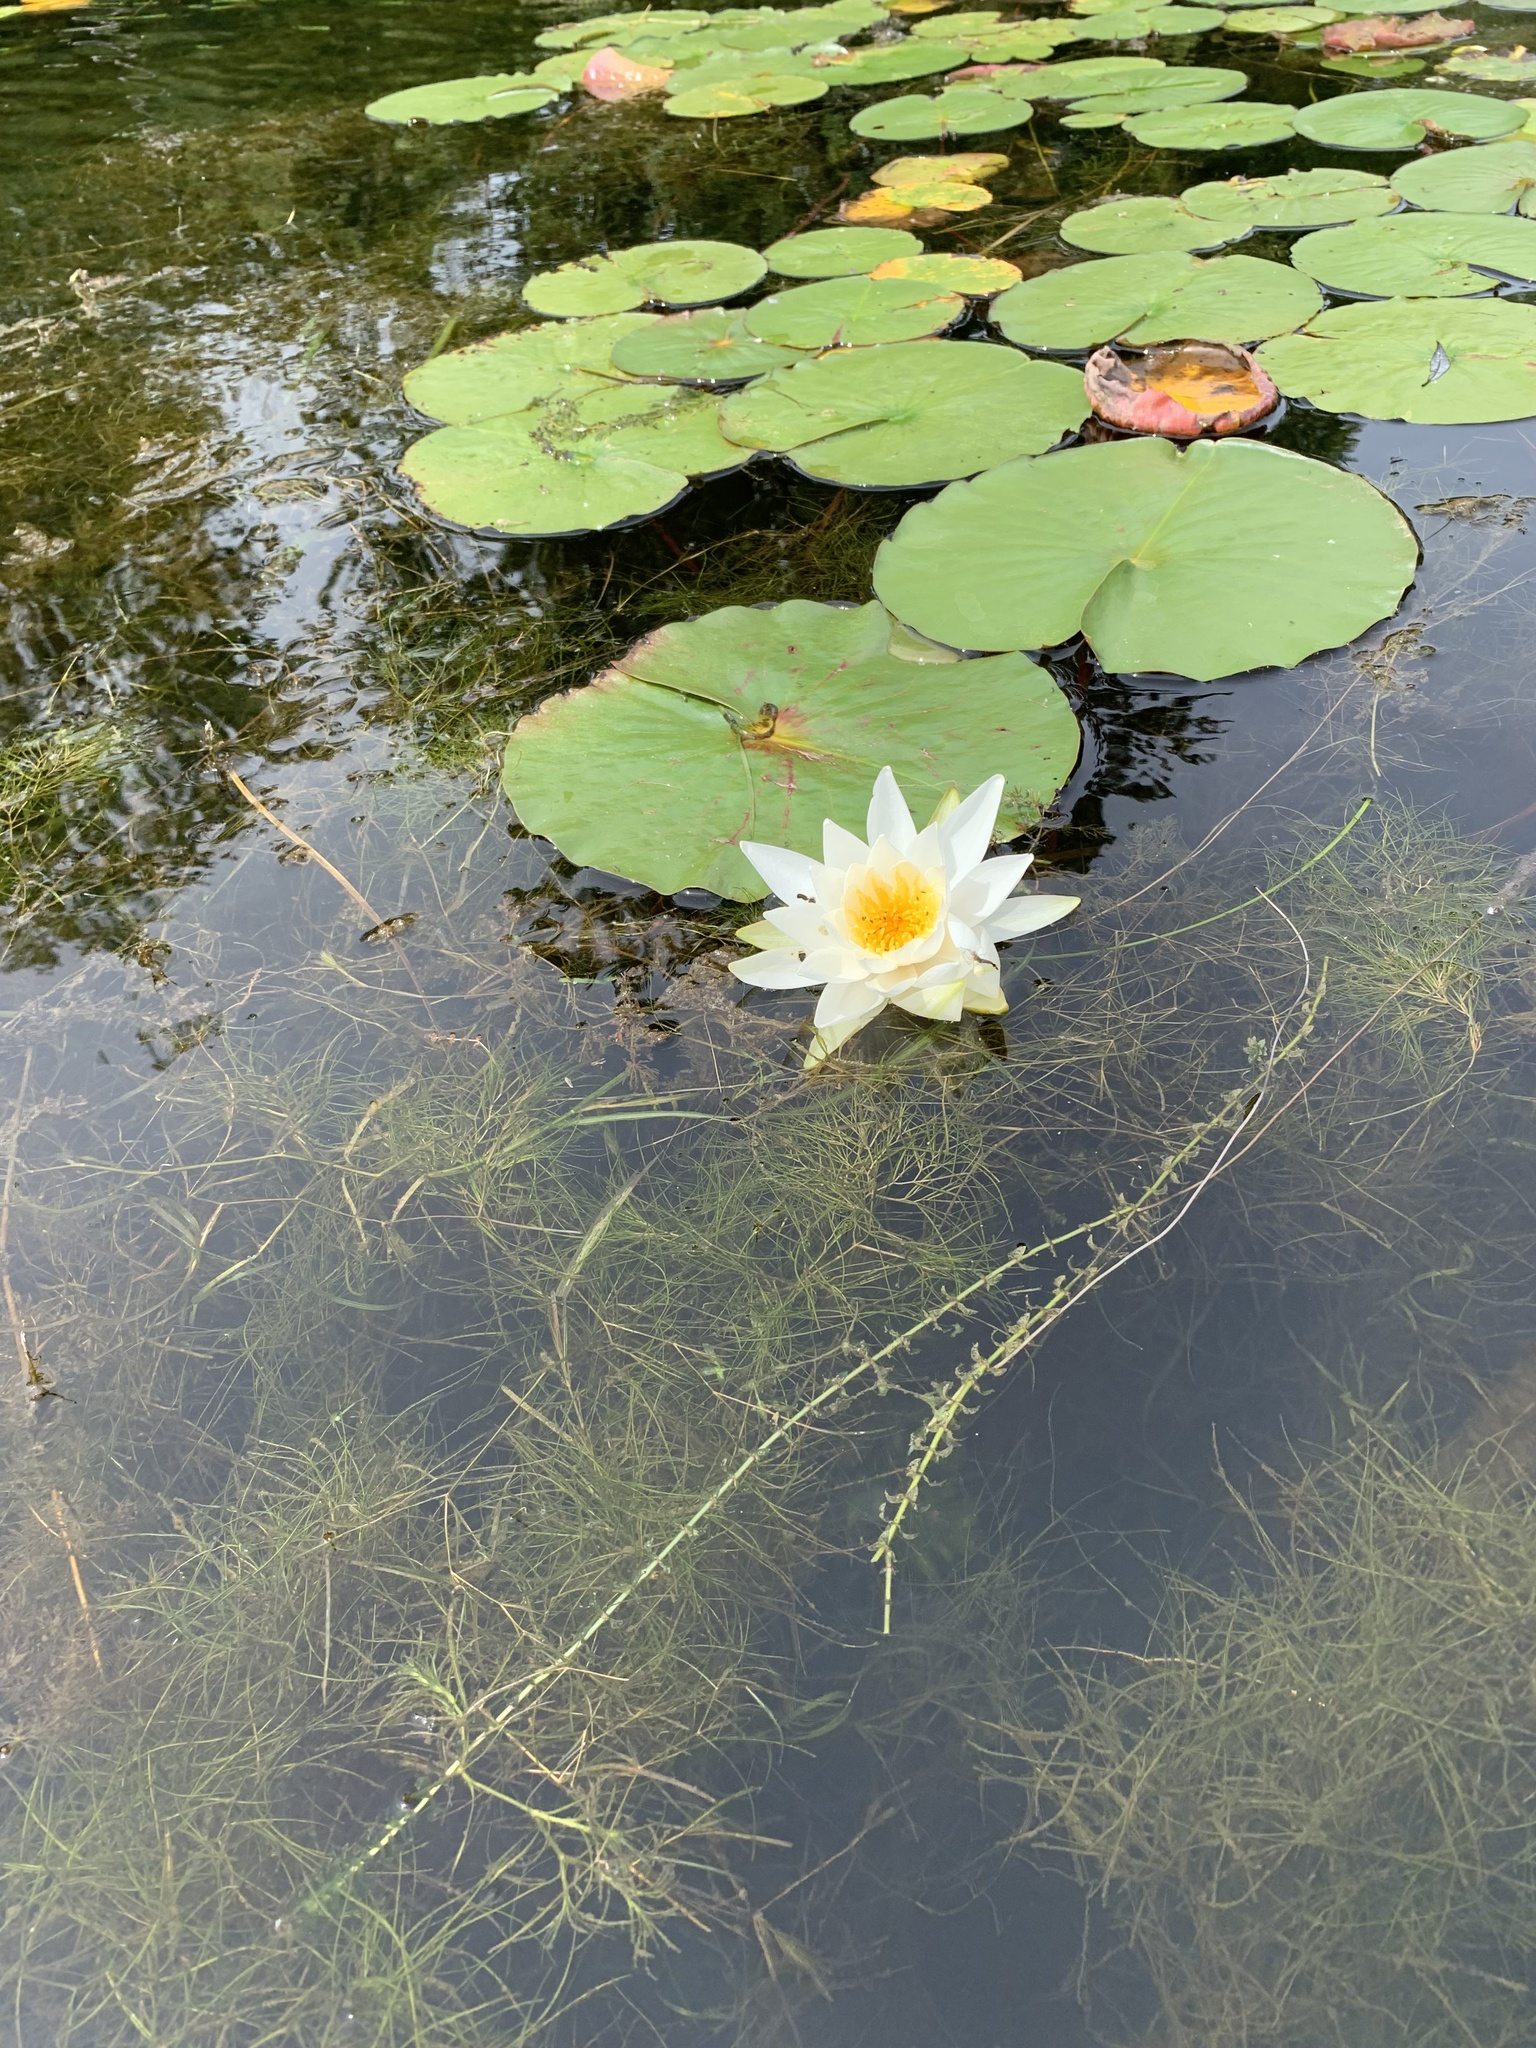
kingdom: Plantae
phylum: Tracheophyta
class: Magnoliopsida
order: Nymphaeales
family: Nymphaeaceae
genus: Nymphaea
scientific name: Nymphaea odorata
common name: Fragrant water-lily
